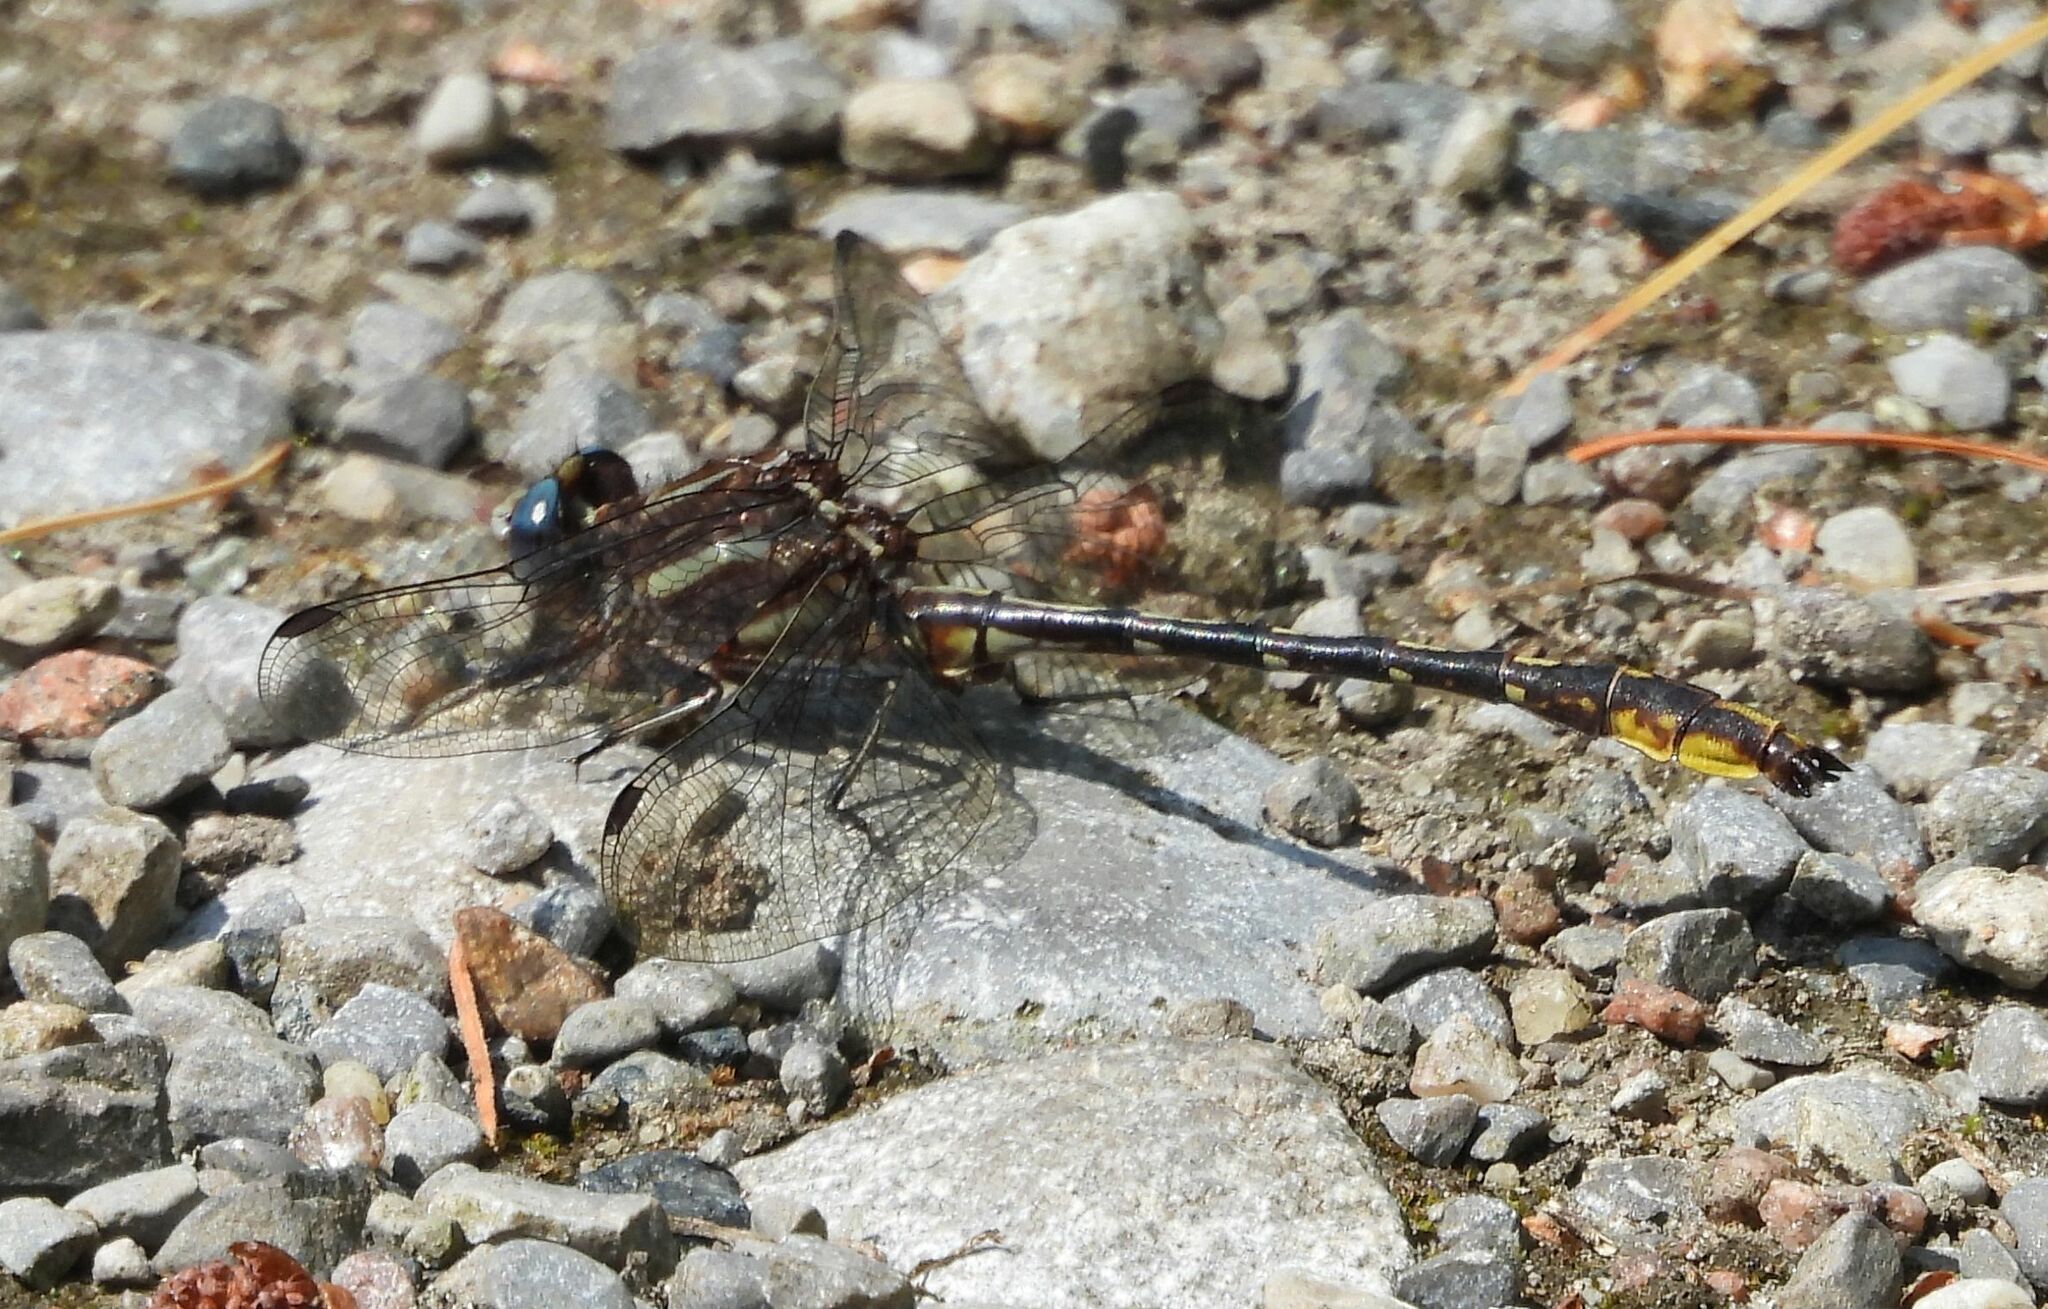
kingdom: Animalia
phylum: Arthropoda
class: Insecta
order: Odonata
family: Gomphidae
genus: Phanogomphus
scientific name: Phanogomphus exilis
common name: Lancet clubtail
